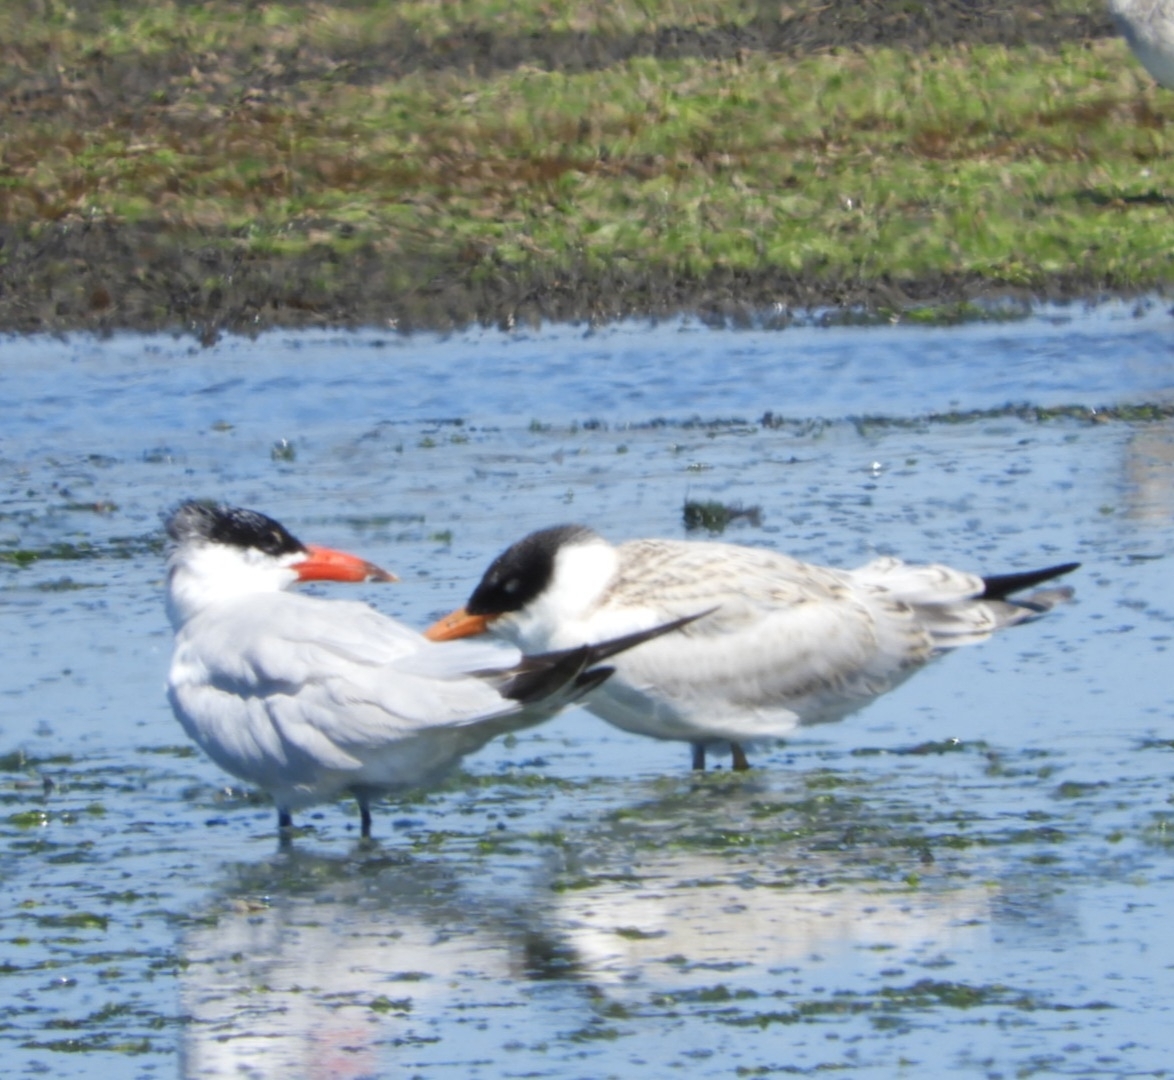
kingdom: Animalia
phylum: Chordata
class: Aves
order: Charadriiformes
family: Laridae
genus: Hydroprogne
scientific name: Hydroprogne caspia
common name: Caspian tern
